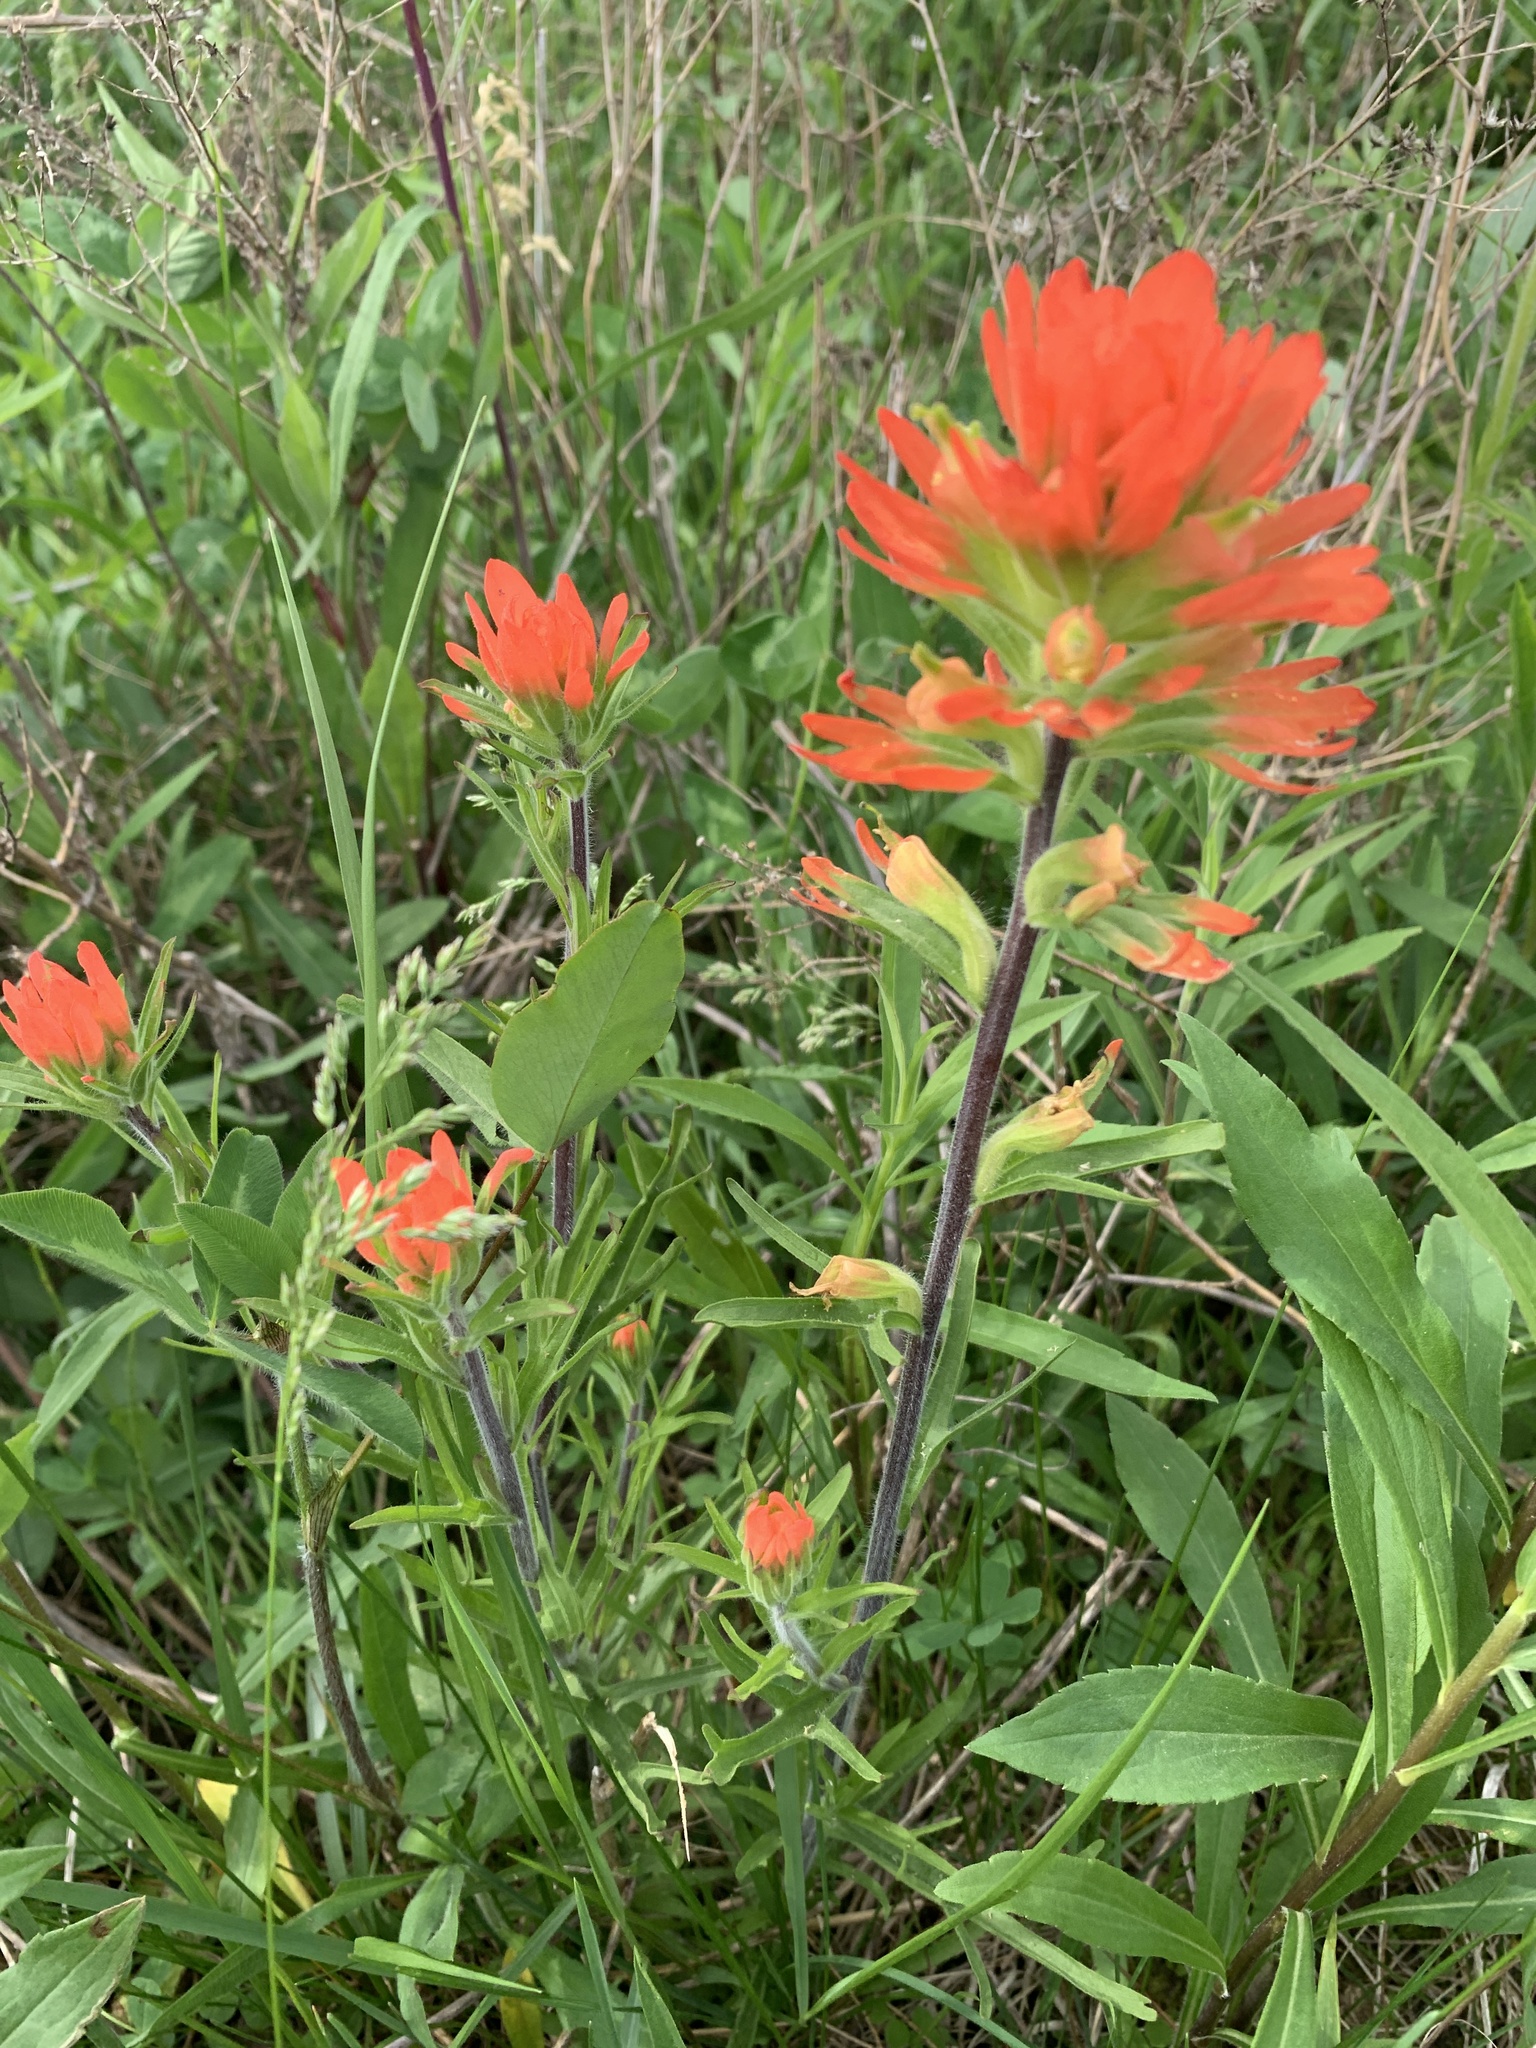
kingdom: Plantae
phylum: Tracheophyta
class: Magnoliopsida
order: Lamiales
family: Orobanchaceae
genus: Castilleja
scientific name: Castilleja coccinea
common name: Scarlet paintbrush
